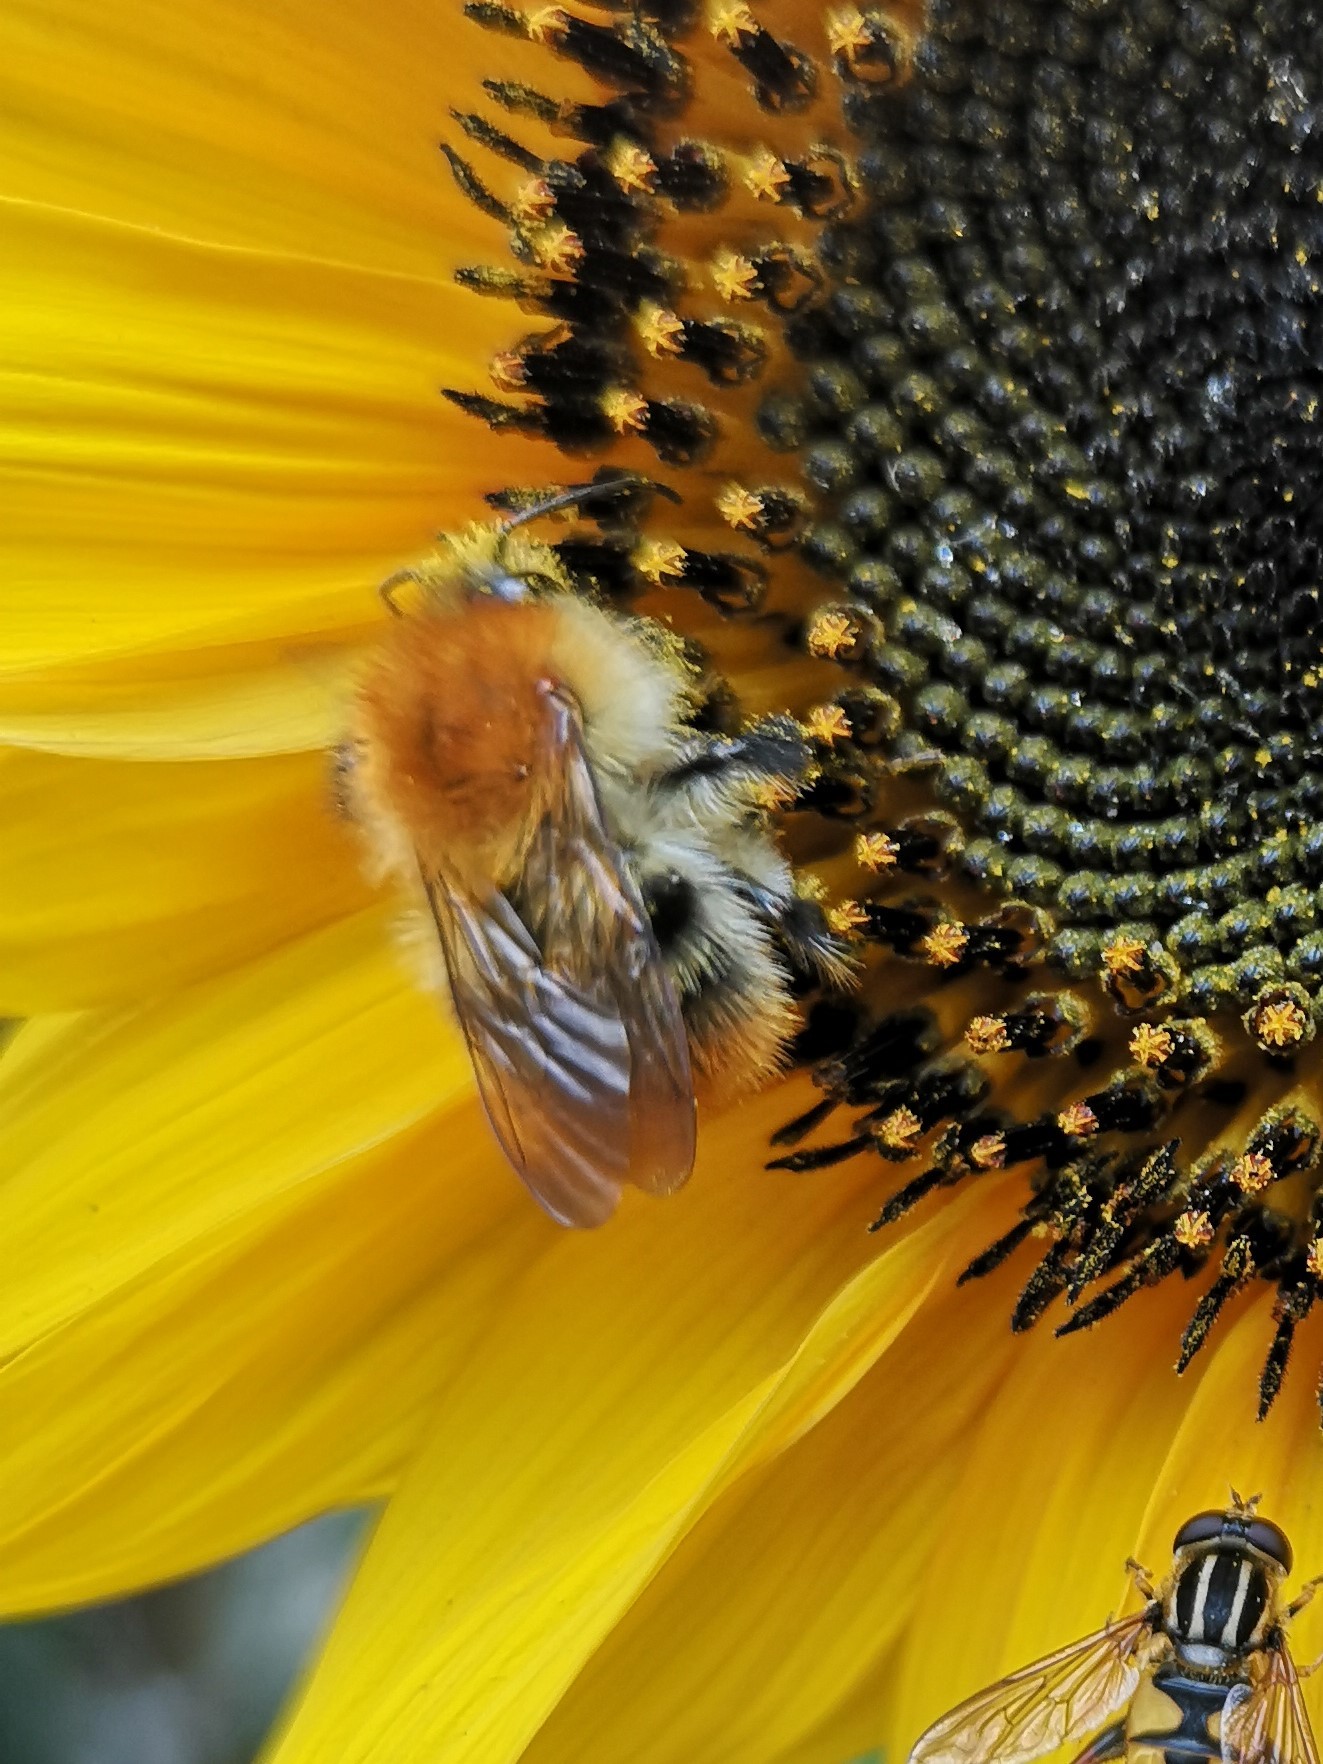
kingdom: Animalia
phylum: Arthropoda
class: Insecta
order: Hymenoptera
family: Apidae
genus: Bombus
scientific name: Bombus pascuorum
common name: Common carder bee
